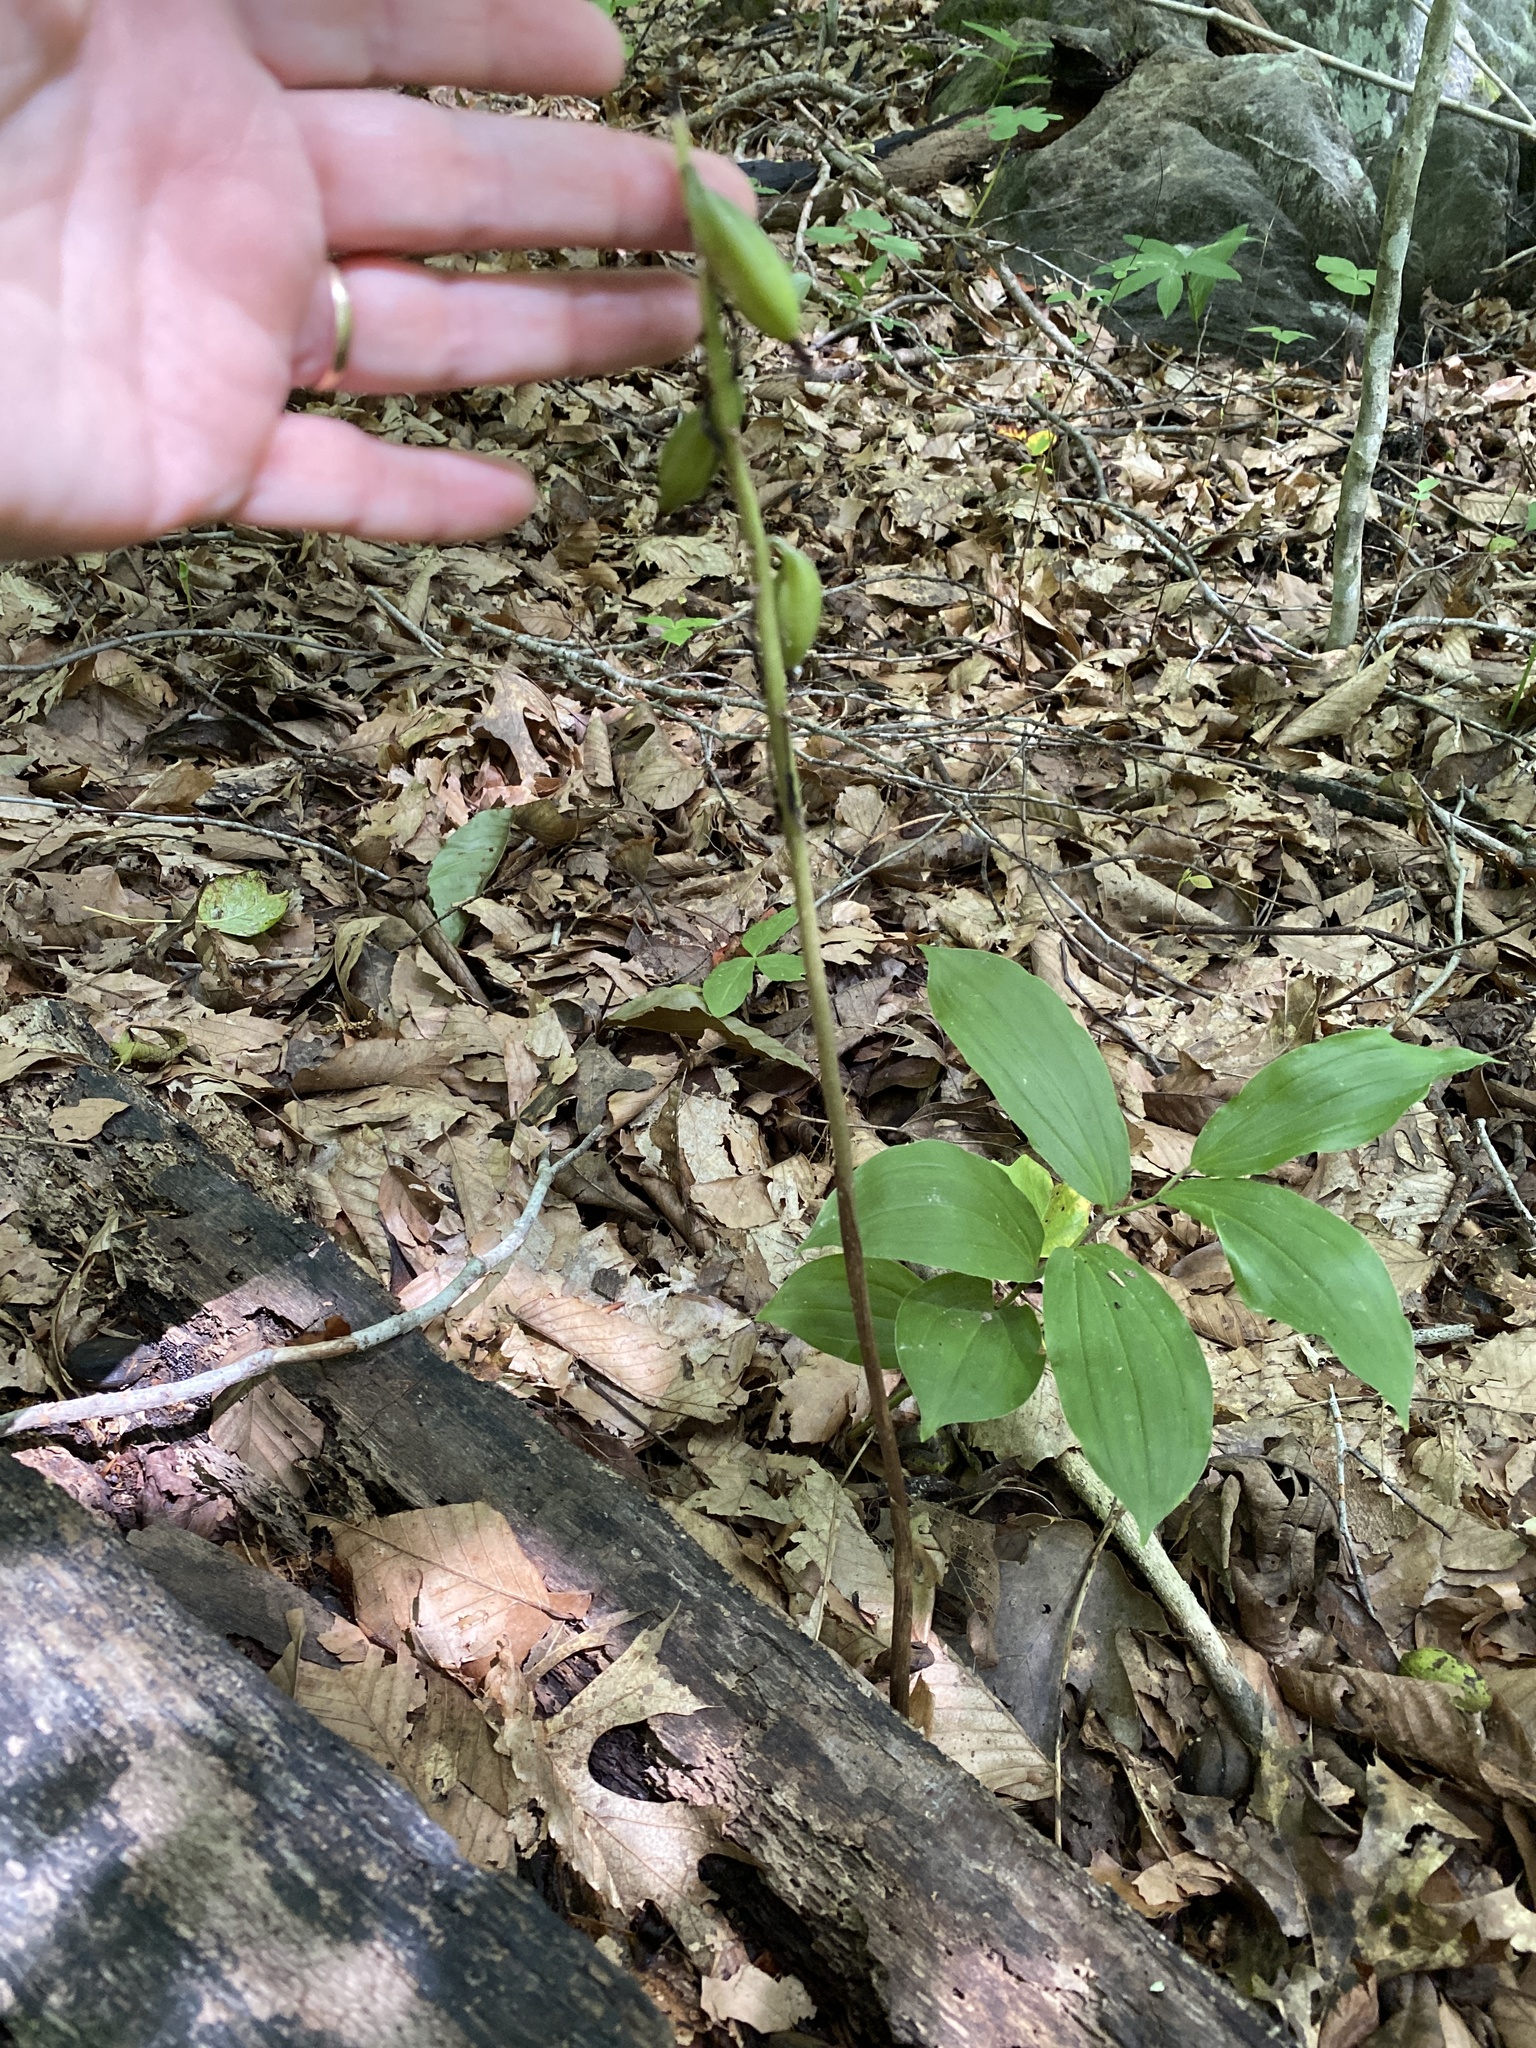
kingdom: Plantae
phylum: Tracheophyta
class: Liliopsida
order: Asparagales
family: Orchidaceae
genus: Aplectrum
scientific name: Aplectrum hyemale
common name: Adam-and-eve
